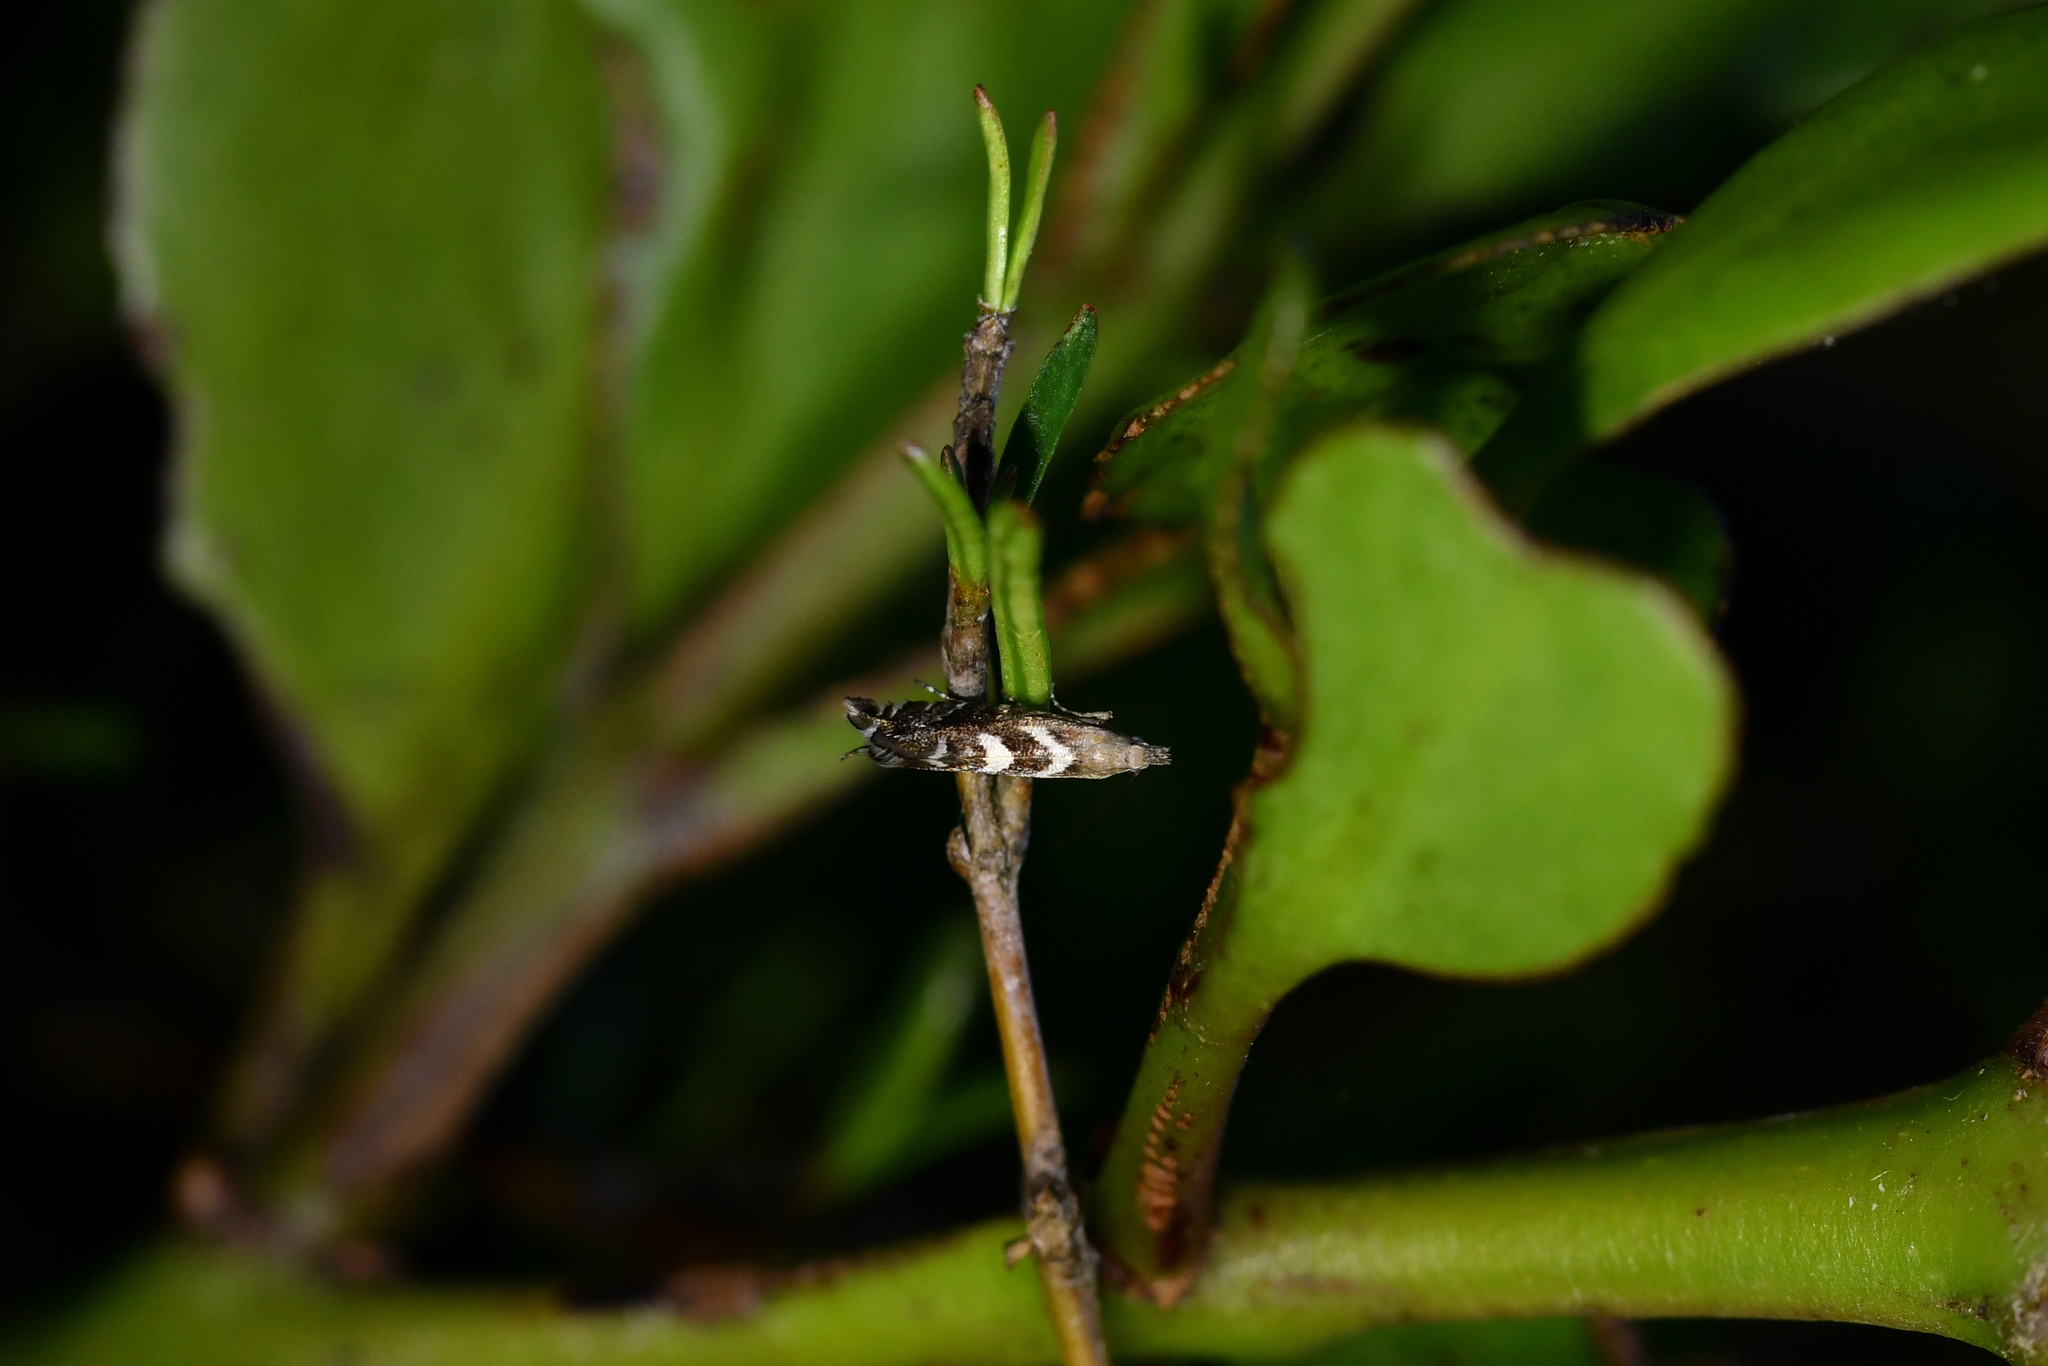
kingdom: Animalia
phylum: Arthropoda
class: Insecta
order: Lepidoptera
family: Glyphipterigidae
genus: Glyphipterix
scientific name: Glyphipterix asteronota
